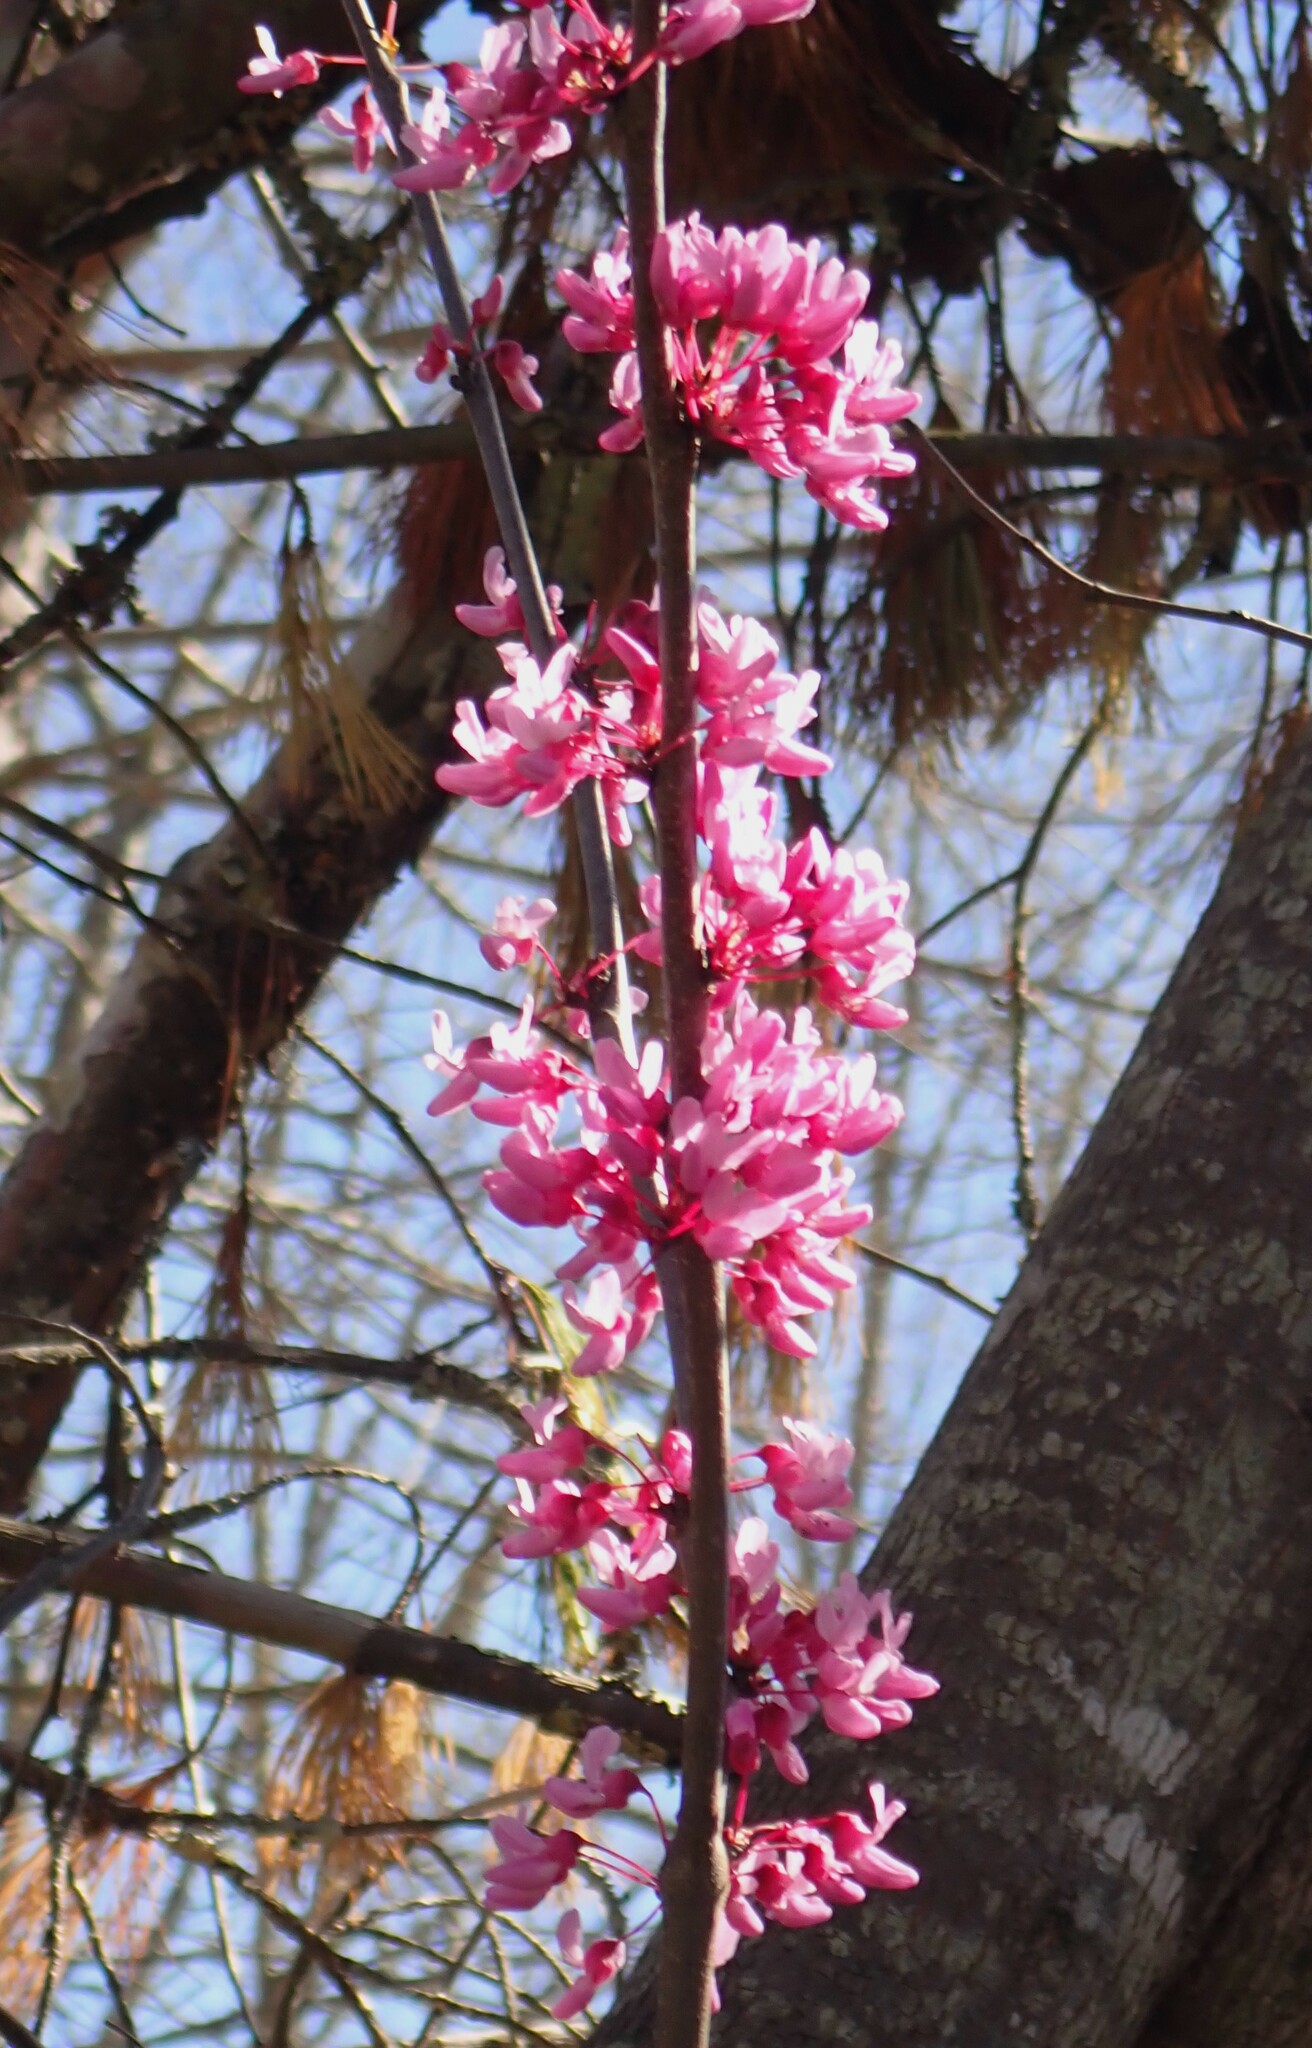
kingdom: Plantae
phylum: Tracheophyta
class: Magnoliopsida
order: Fabales
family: Fabaceae
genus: Cercis
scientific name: Cercis canadensis
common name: Eastern redbud
